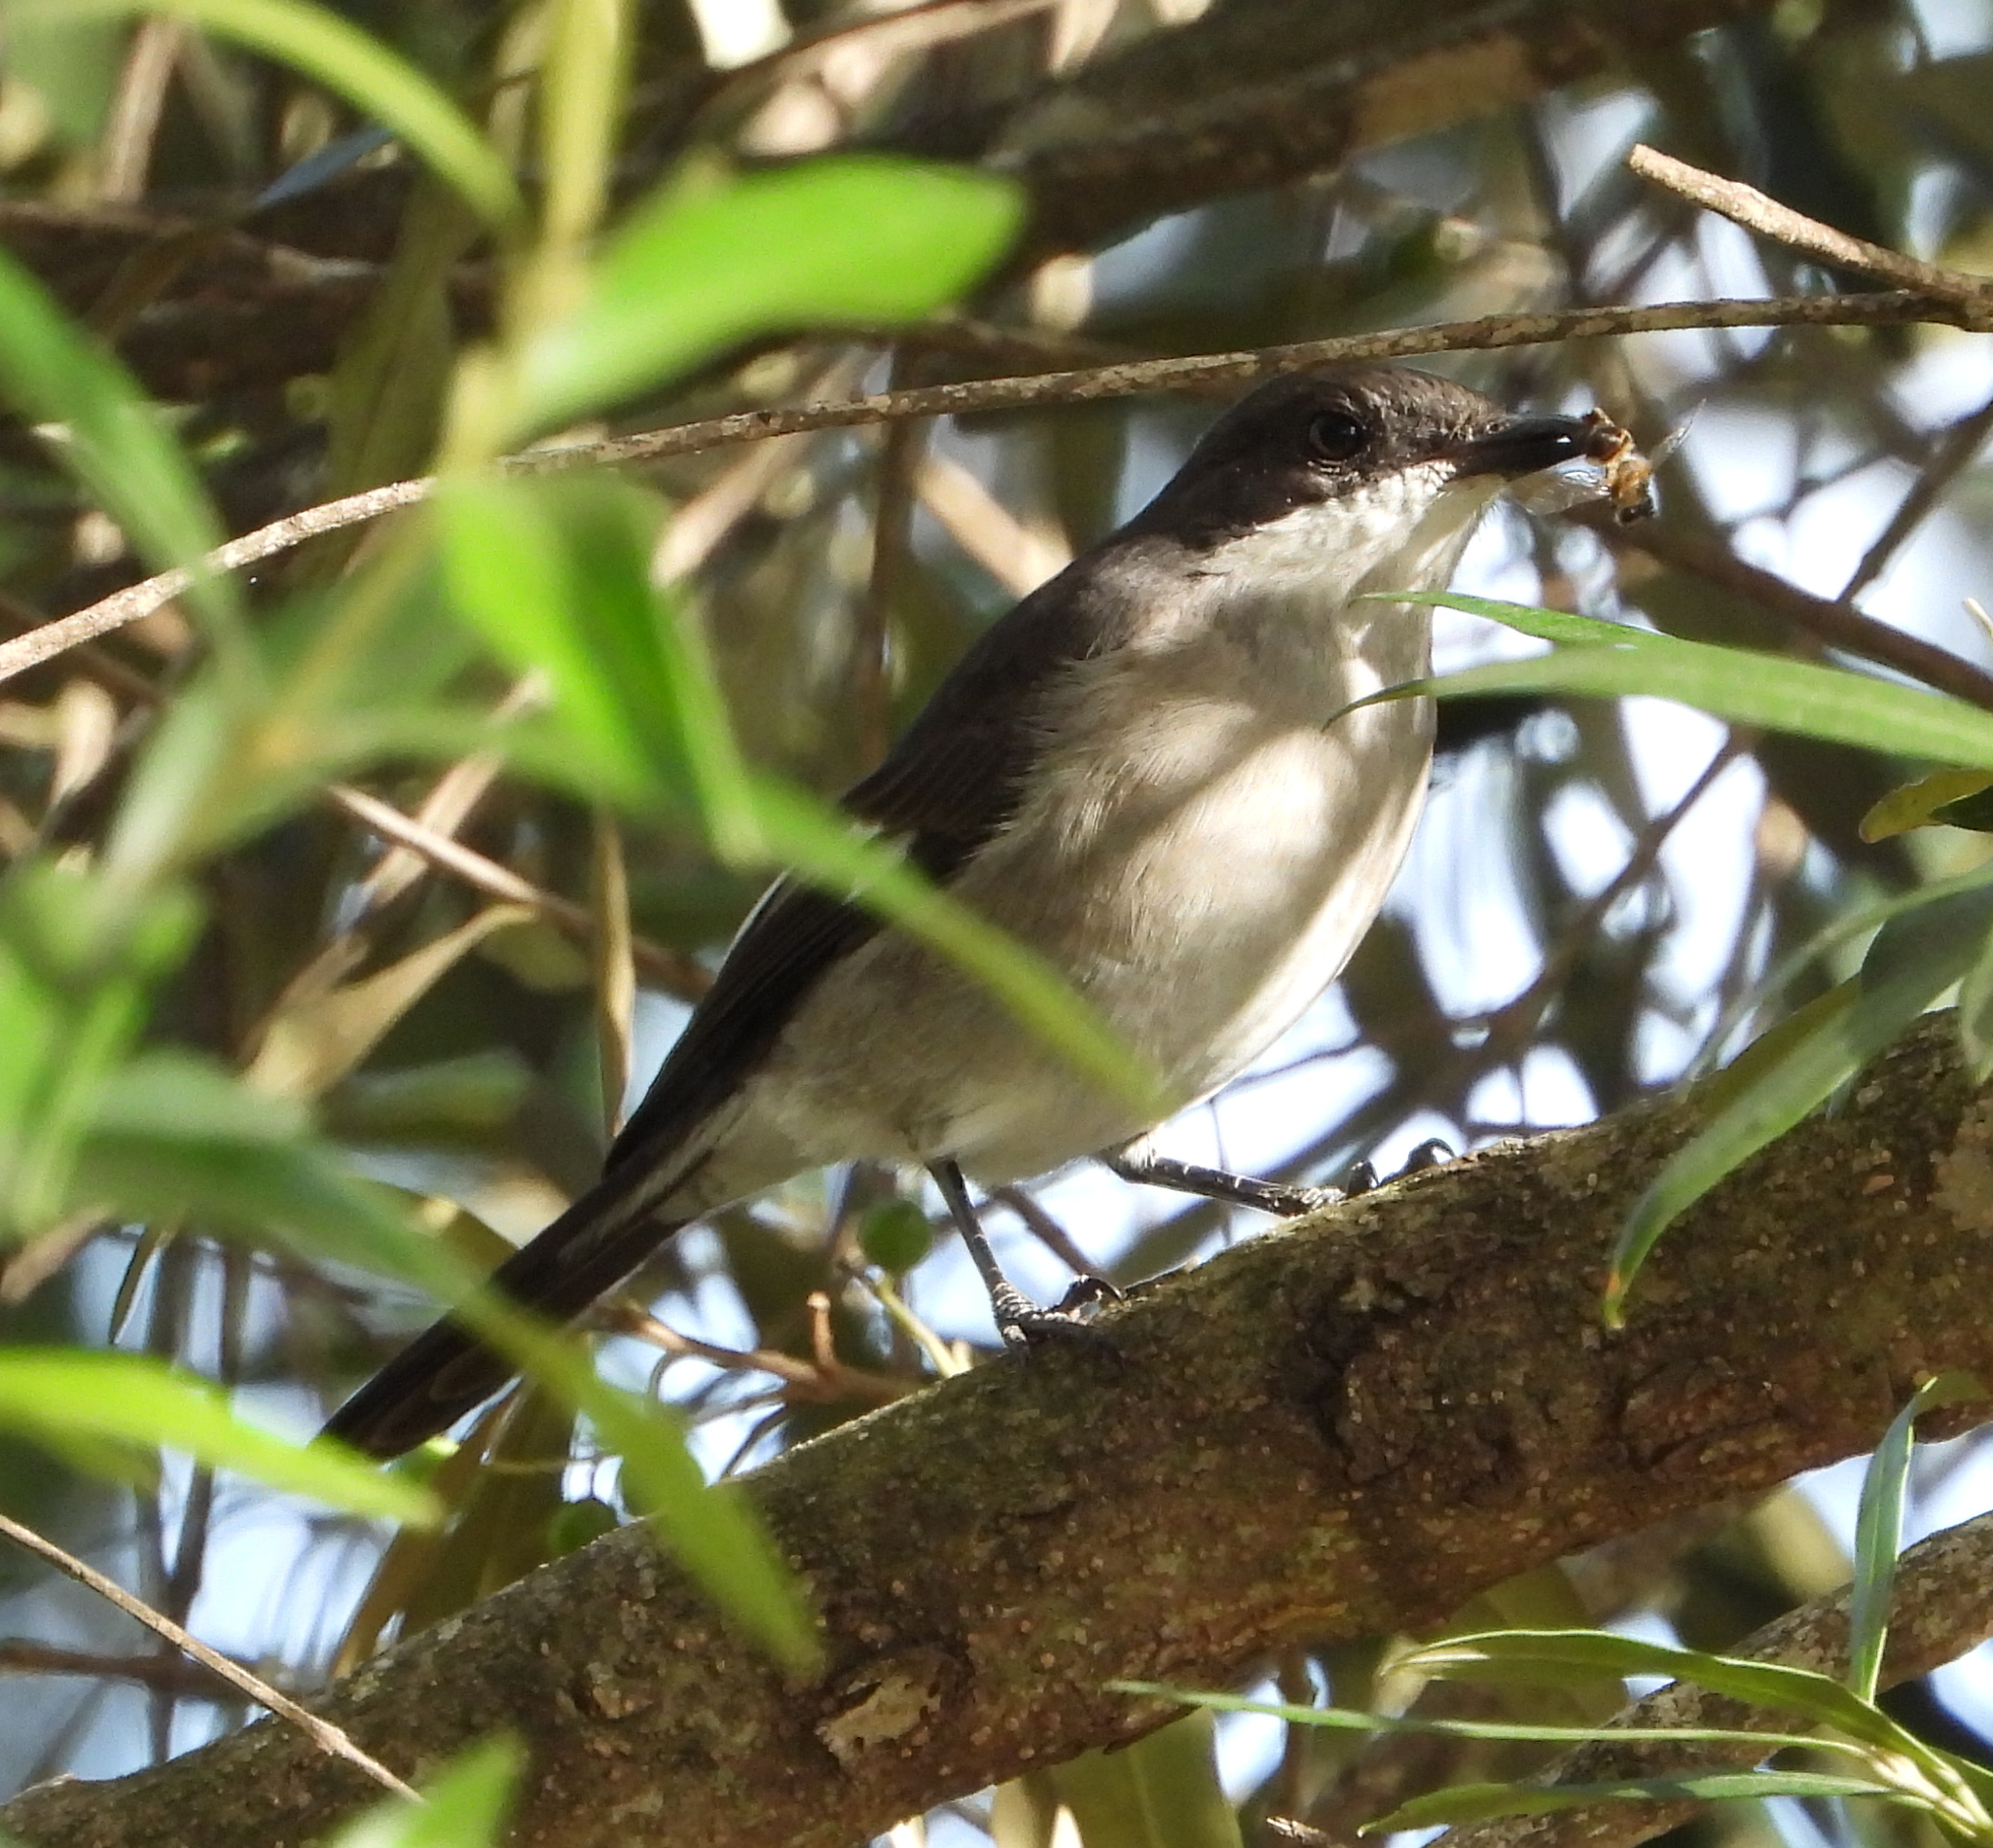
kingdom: Animalia
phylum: Chordata
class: Aves
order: Passeriformes
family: Muscicapidae
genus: Sigelus
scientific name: Sigelus silens
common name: Fiscal flycatcher
